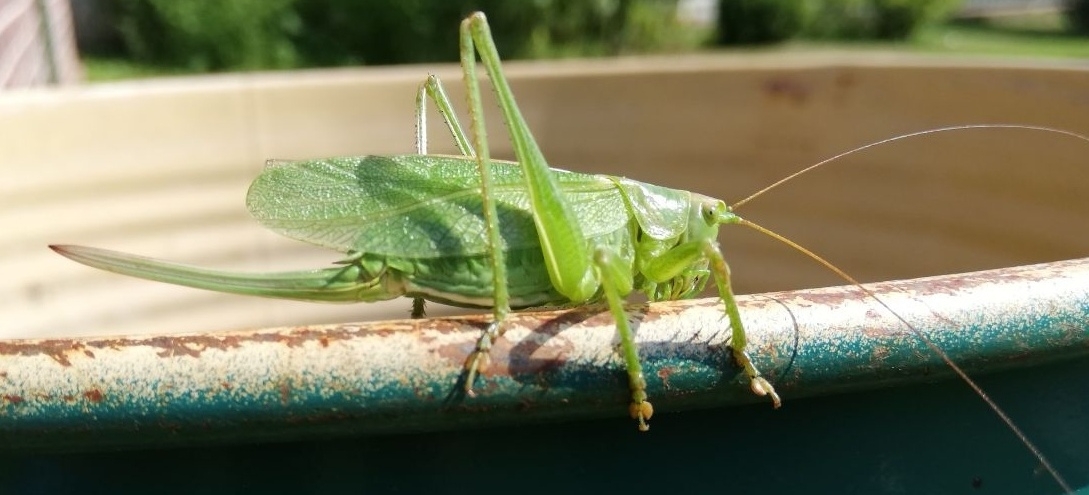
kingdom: Animalia
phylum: Arthropoda
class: Insecta
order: Orthoptera
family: Tettigoniidae
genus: Tettigonia
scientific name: Tettigonia cantans
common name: Upland green bush-cricket
